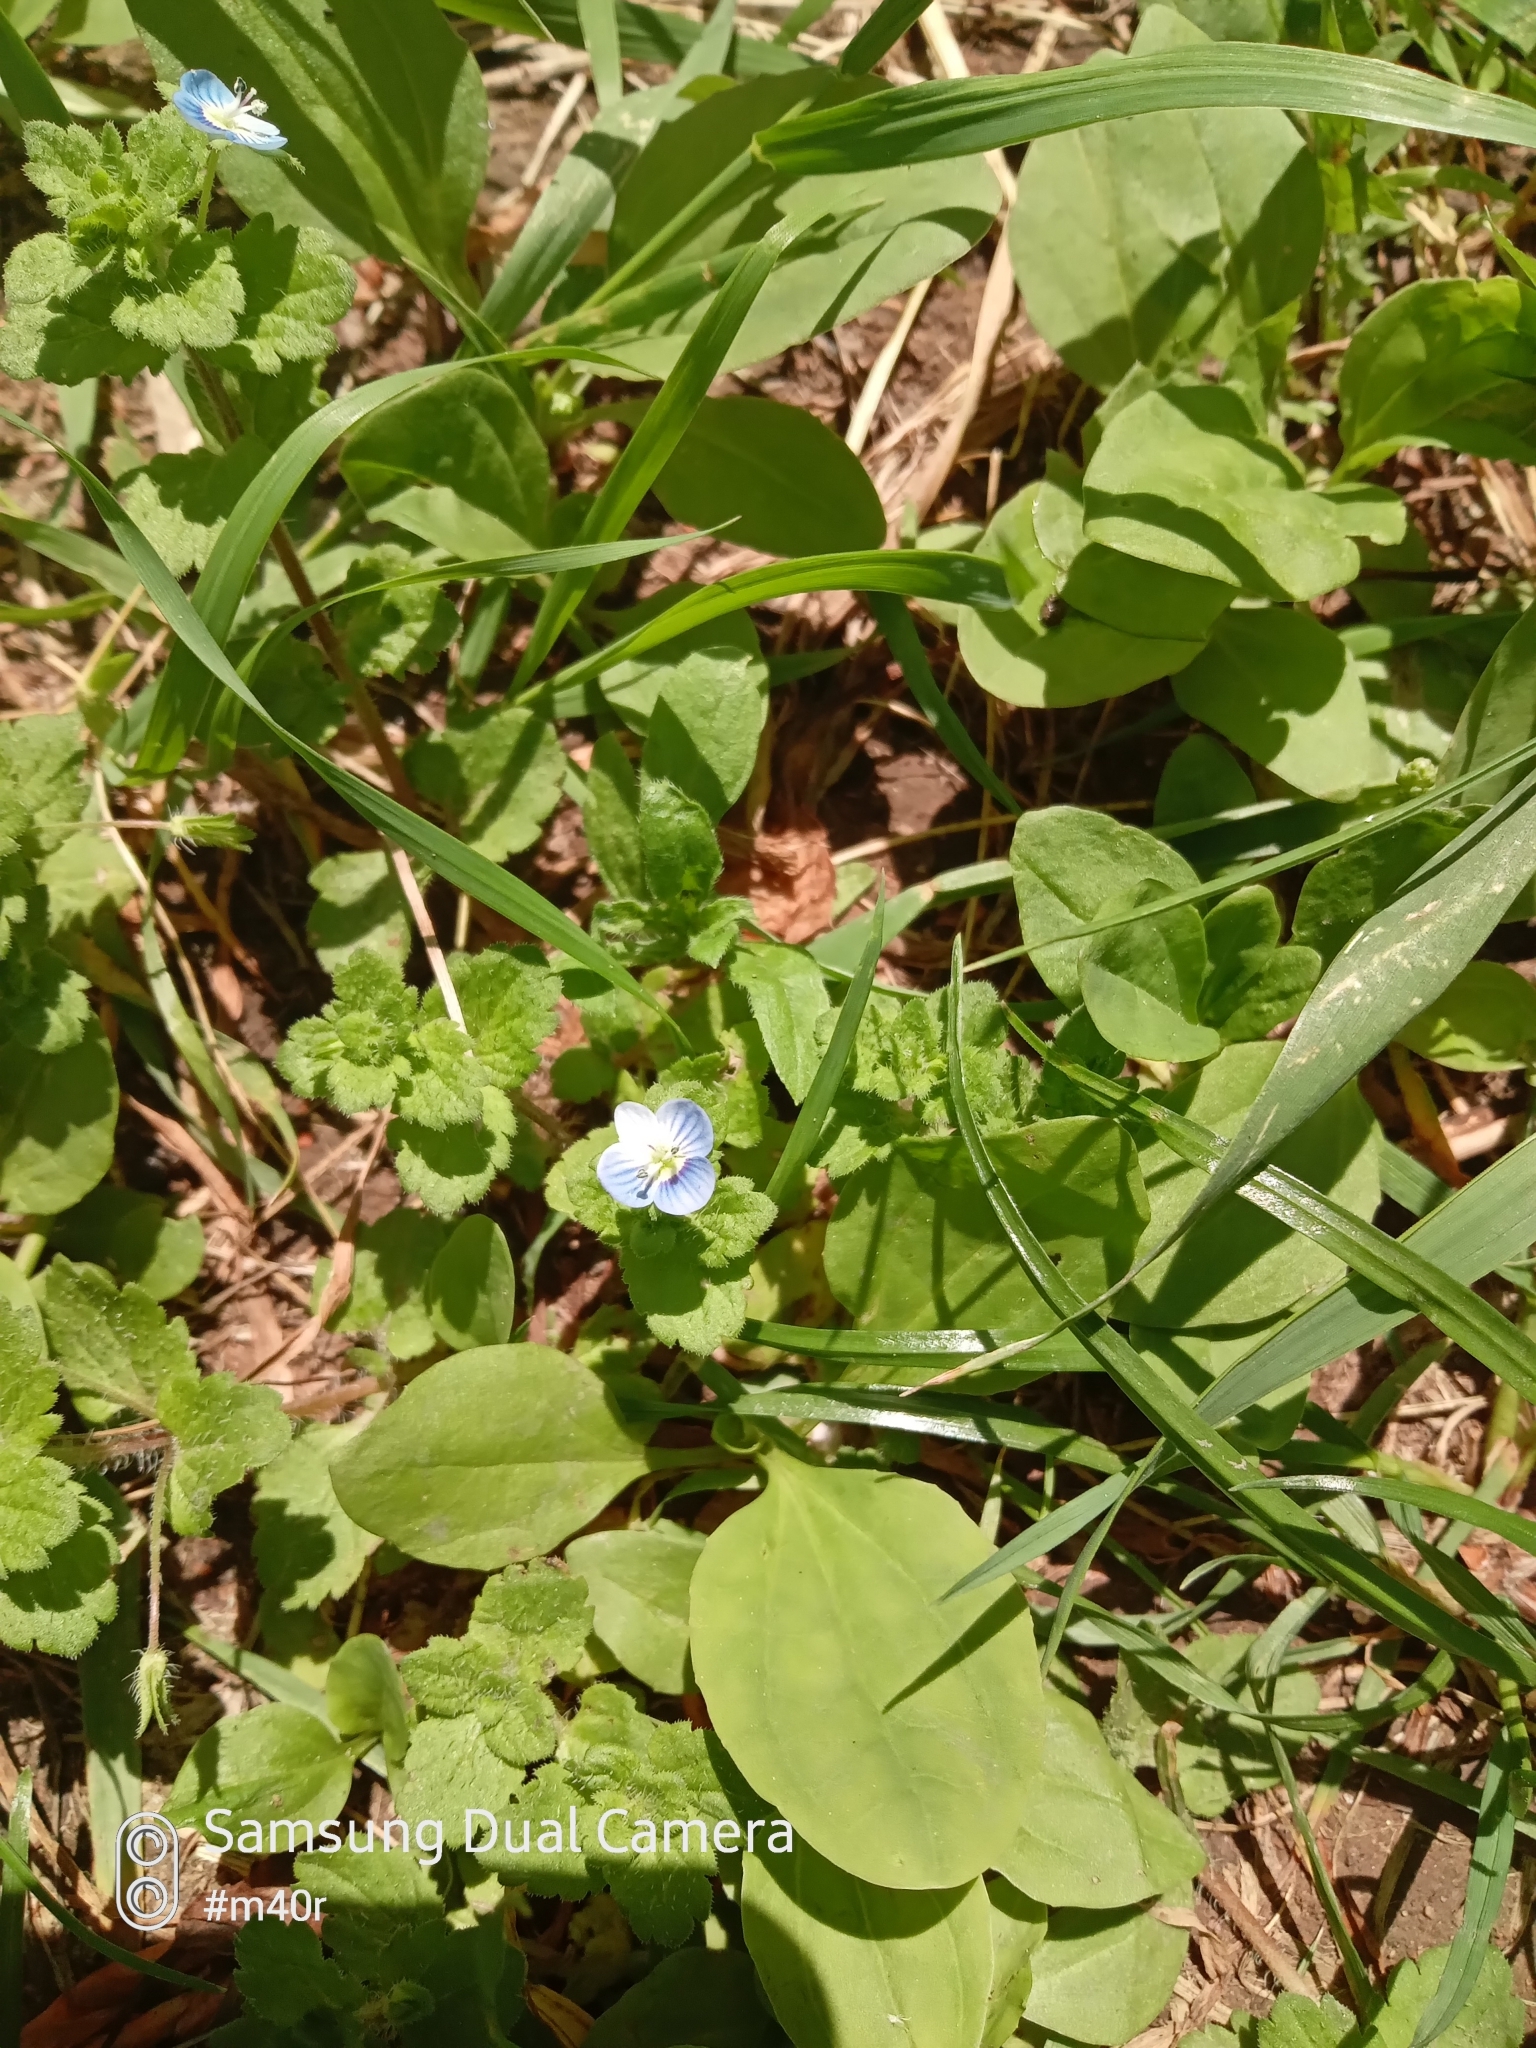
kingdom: Plantae
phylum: Tracheophyta
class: Magnoliopsida
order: Lamiales
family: Plantaginaceae
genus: Veronica
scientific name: Veronica persica
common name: Common field-speedwell
